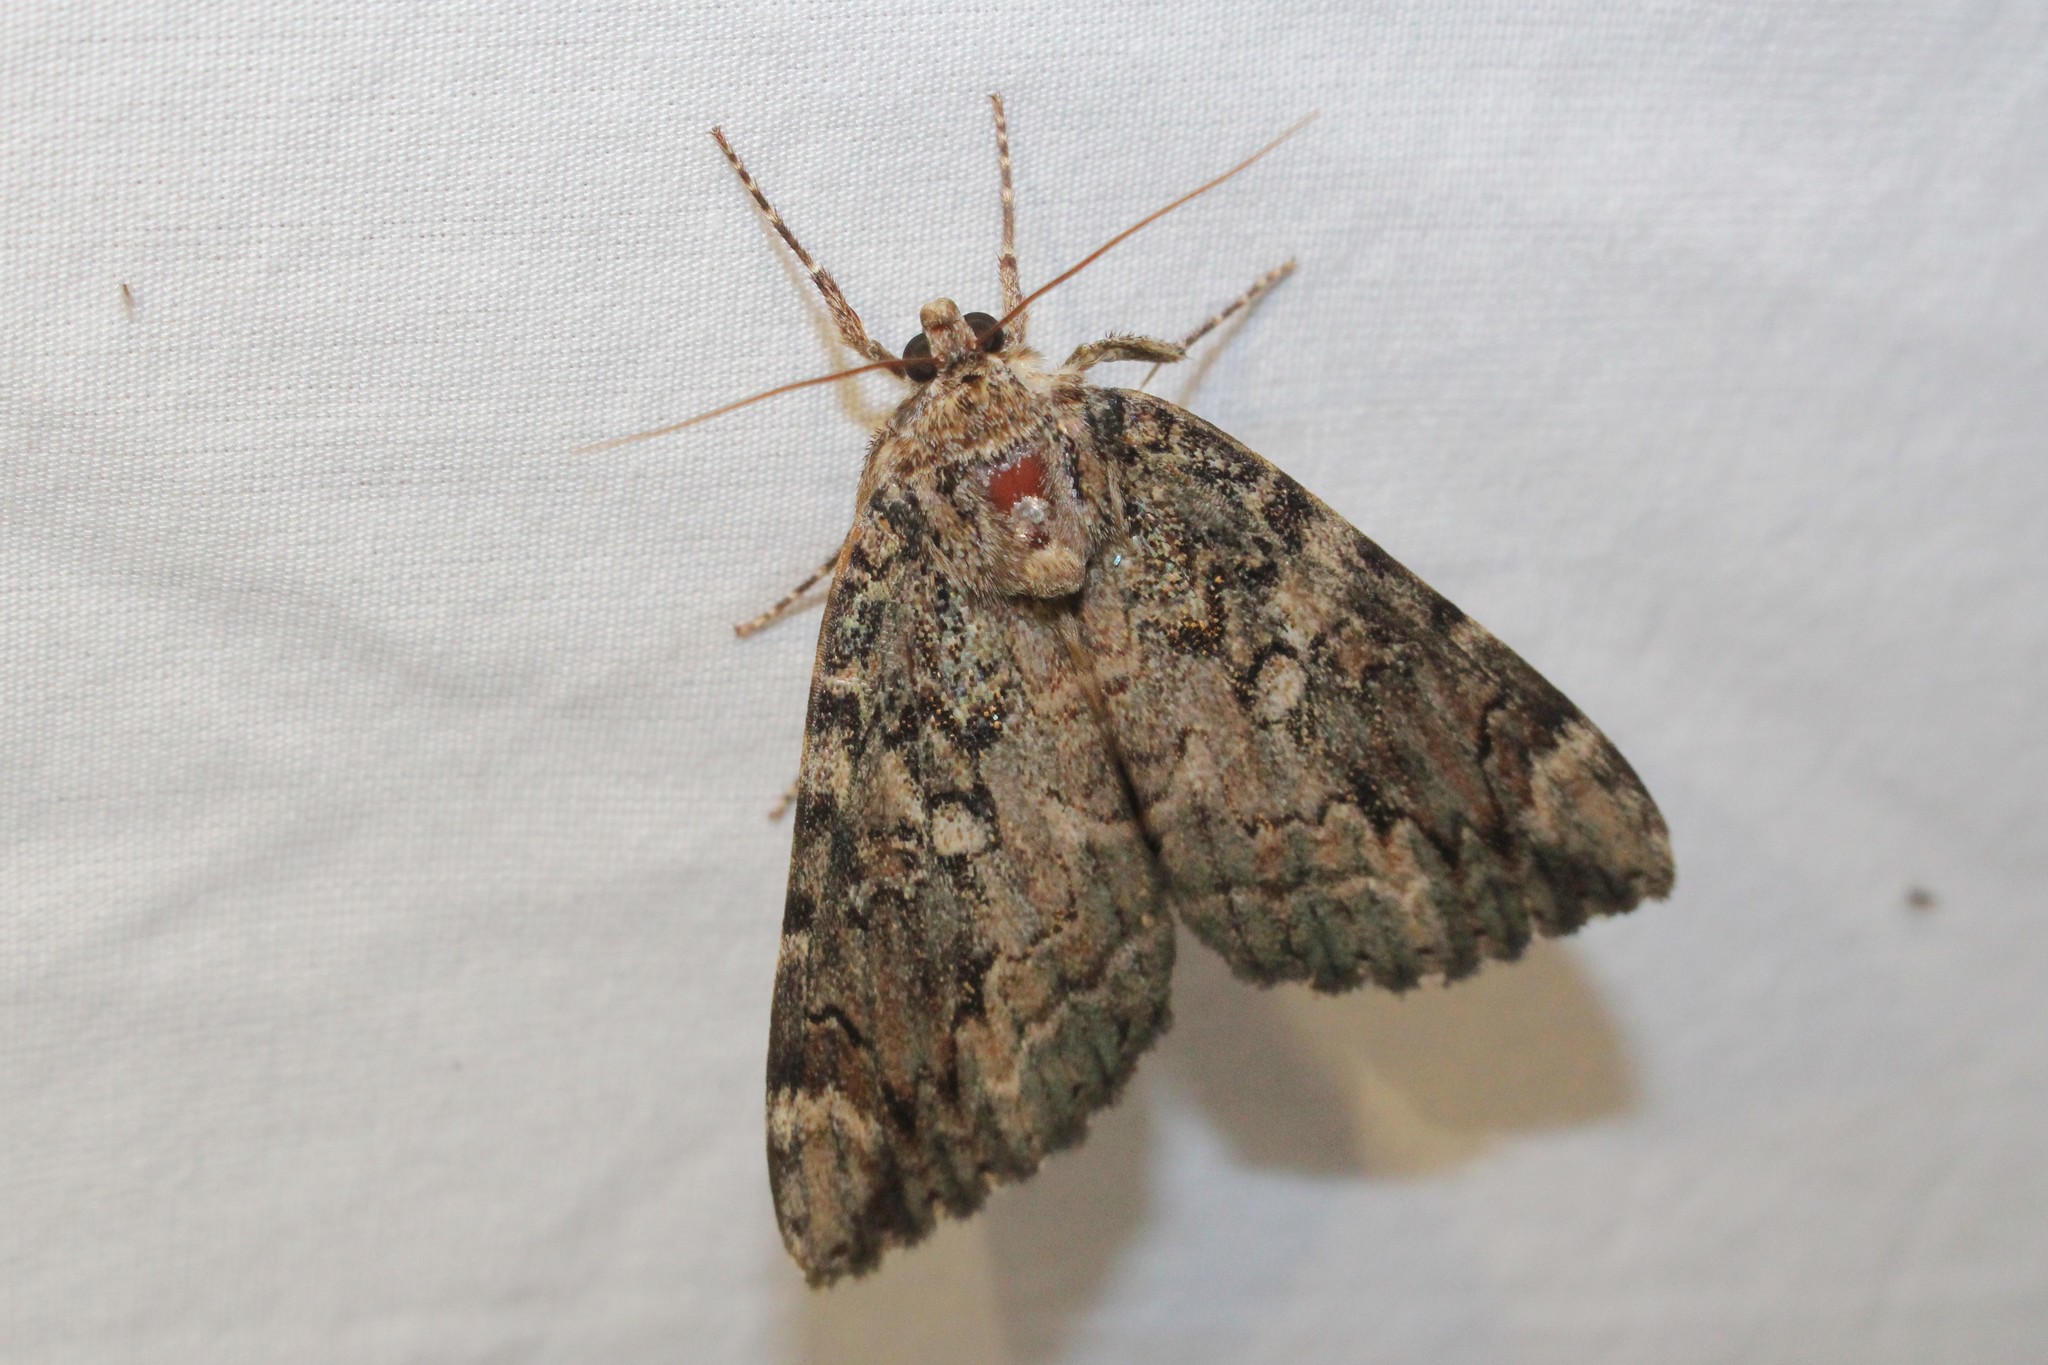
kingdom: Animalia
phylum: Arthropoda
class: Insecta
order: Lepidoptera
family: Erebidae
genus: Catocala
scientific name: Catocala innubens
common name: Betrothed underwing
